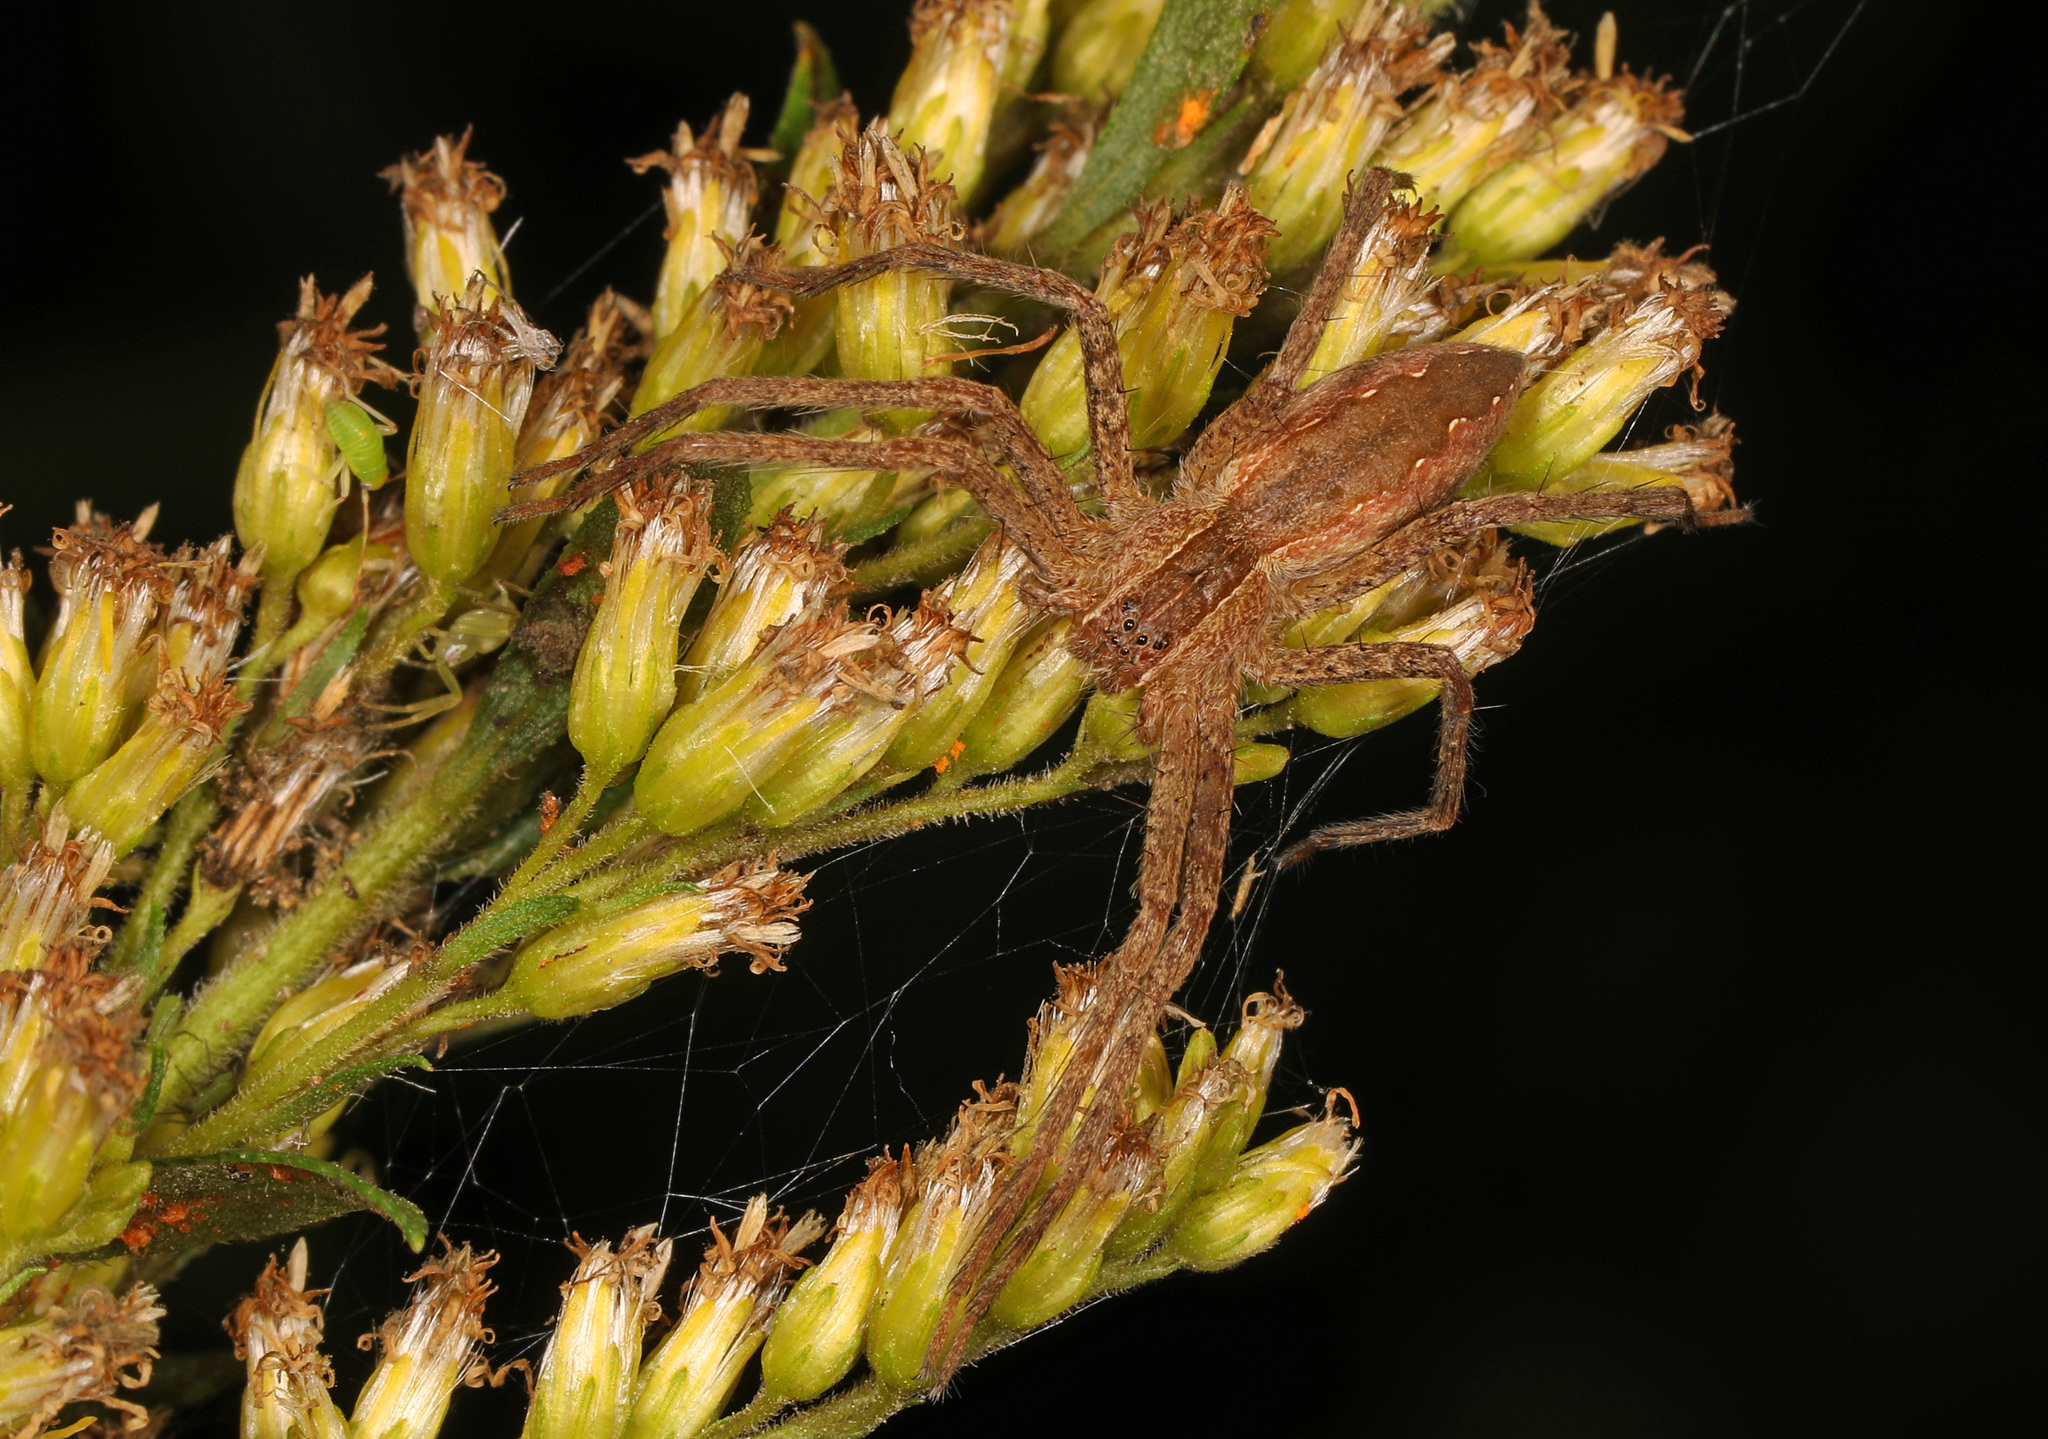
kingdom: Animalia
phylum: Arthropoda
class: Arachnida
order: Araneae
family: Pisauridae
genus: Pisaurina
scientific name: Pisaurina mira
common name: American nursery web spider
